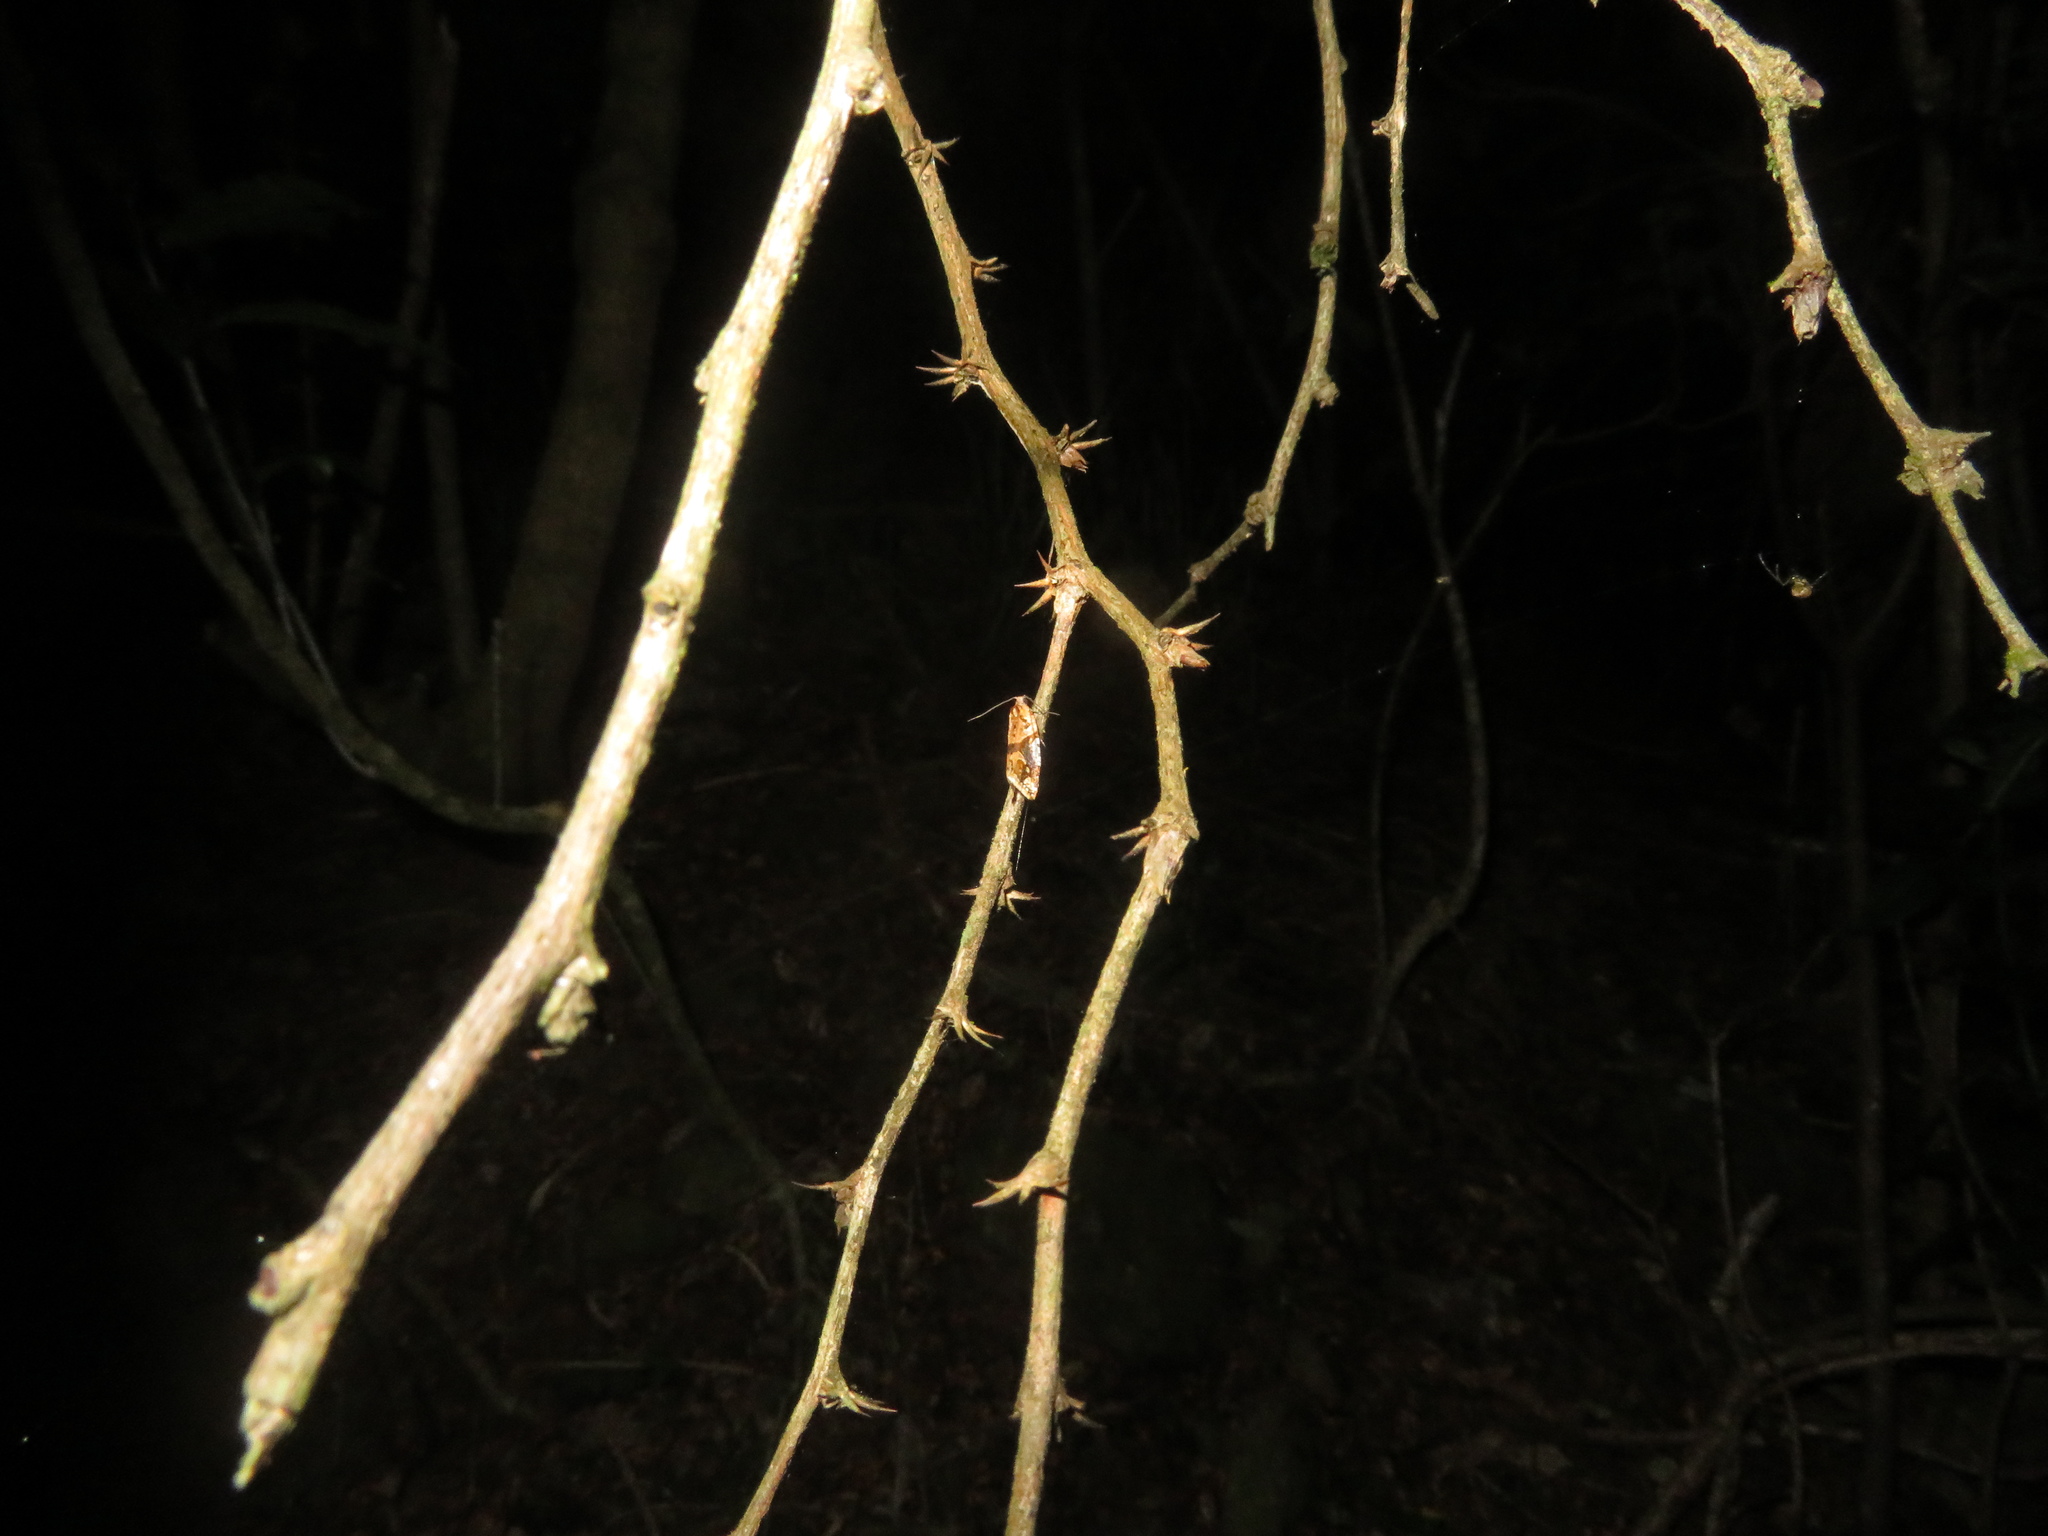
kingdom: Animalia
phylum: Arthropoda
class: Insecta
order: Lepidoptera
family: Tortricidae
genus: Pyrgotis
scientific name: Pyrgotis plagiatana
